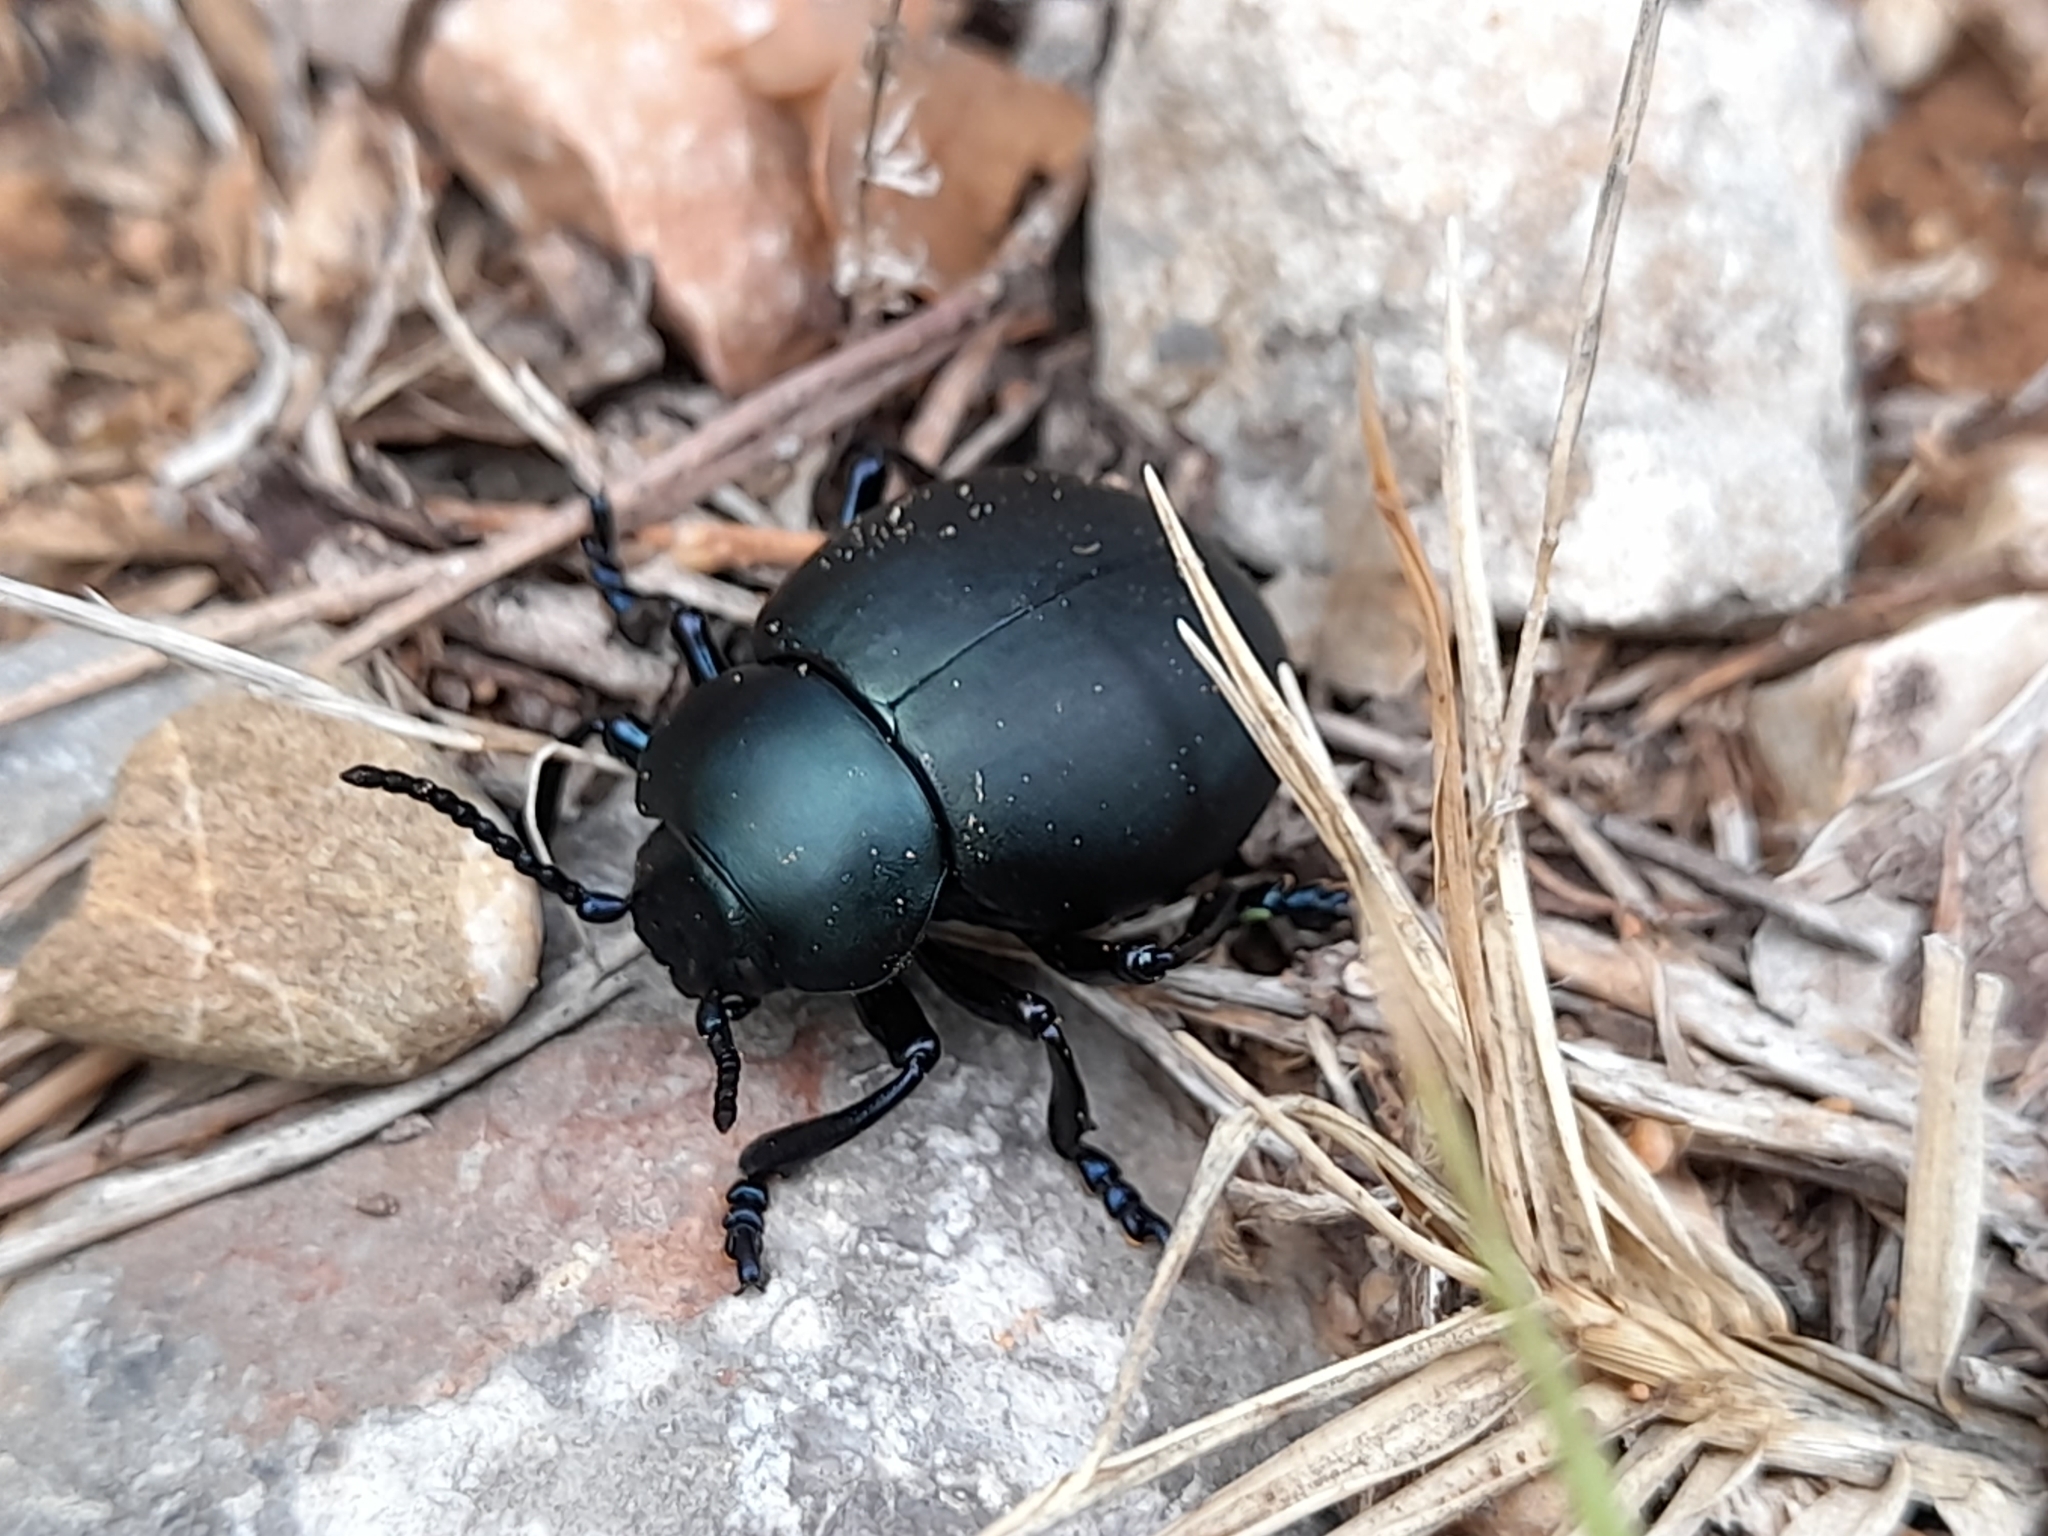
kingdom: Animalia
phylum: Arthropoda
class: Insecta
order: Coleoptera
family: Chrysomelidae
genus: Timarcha
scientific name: Timarcha tenebricosa
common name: Bloody-nosed beetle
